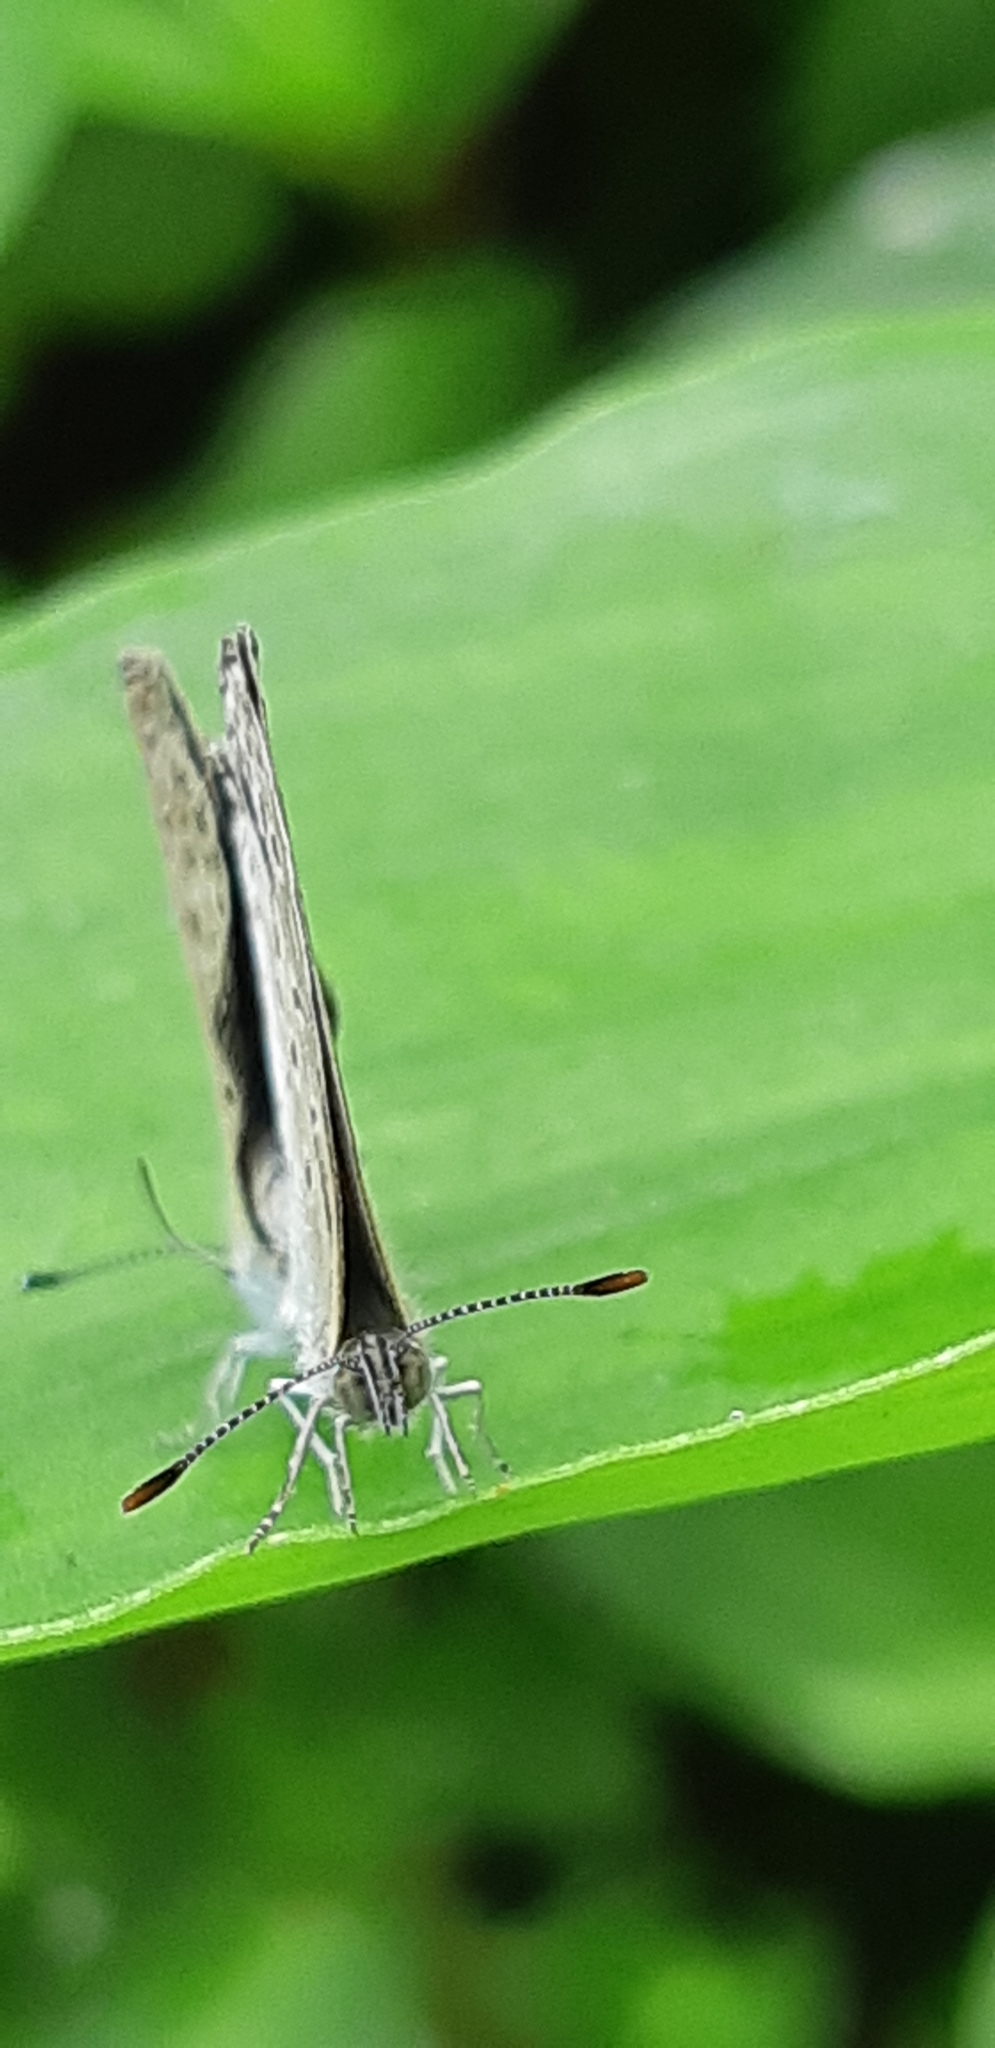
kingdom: Animalia
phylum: Arthropoda
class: Insecta
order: Lepidoptera
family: Lycaenidae
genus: Pseudozizeeria
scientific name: Pseudozizeeria maha
